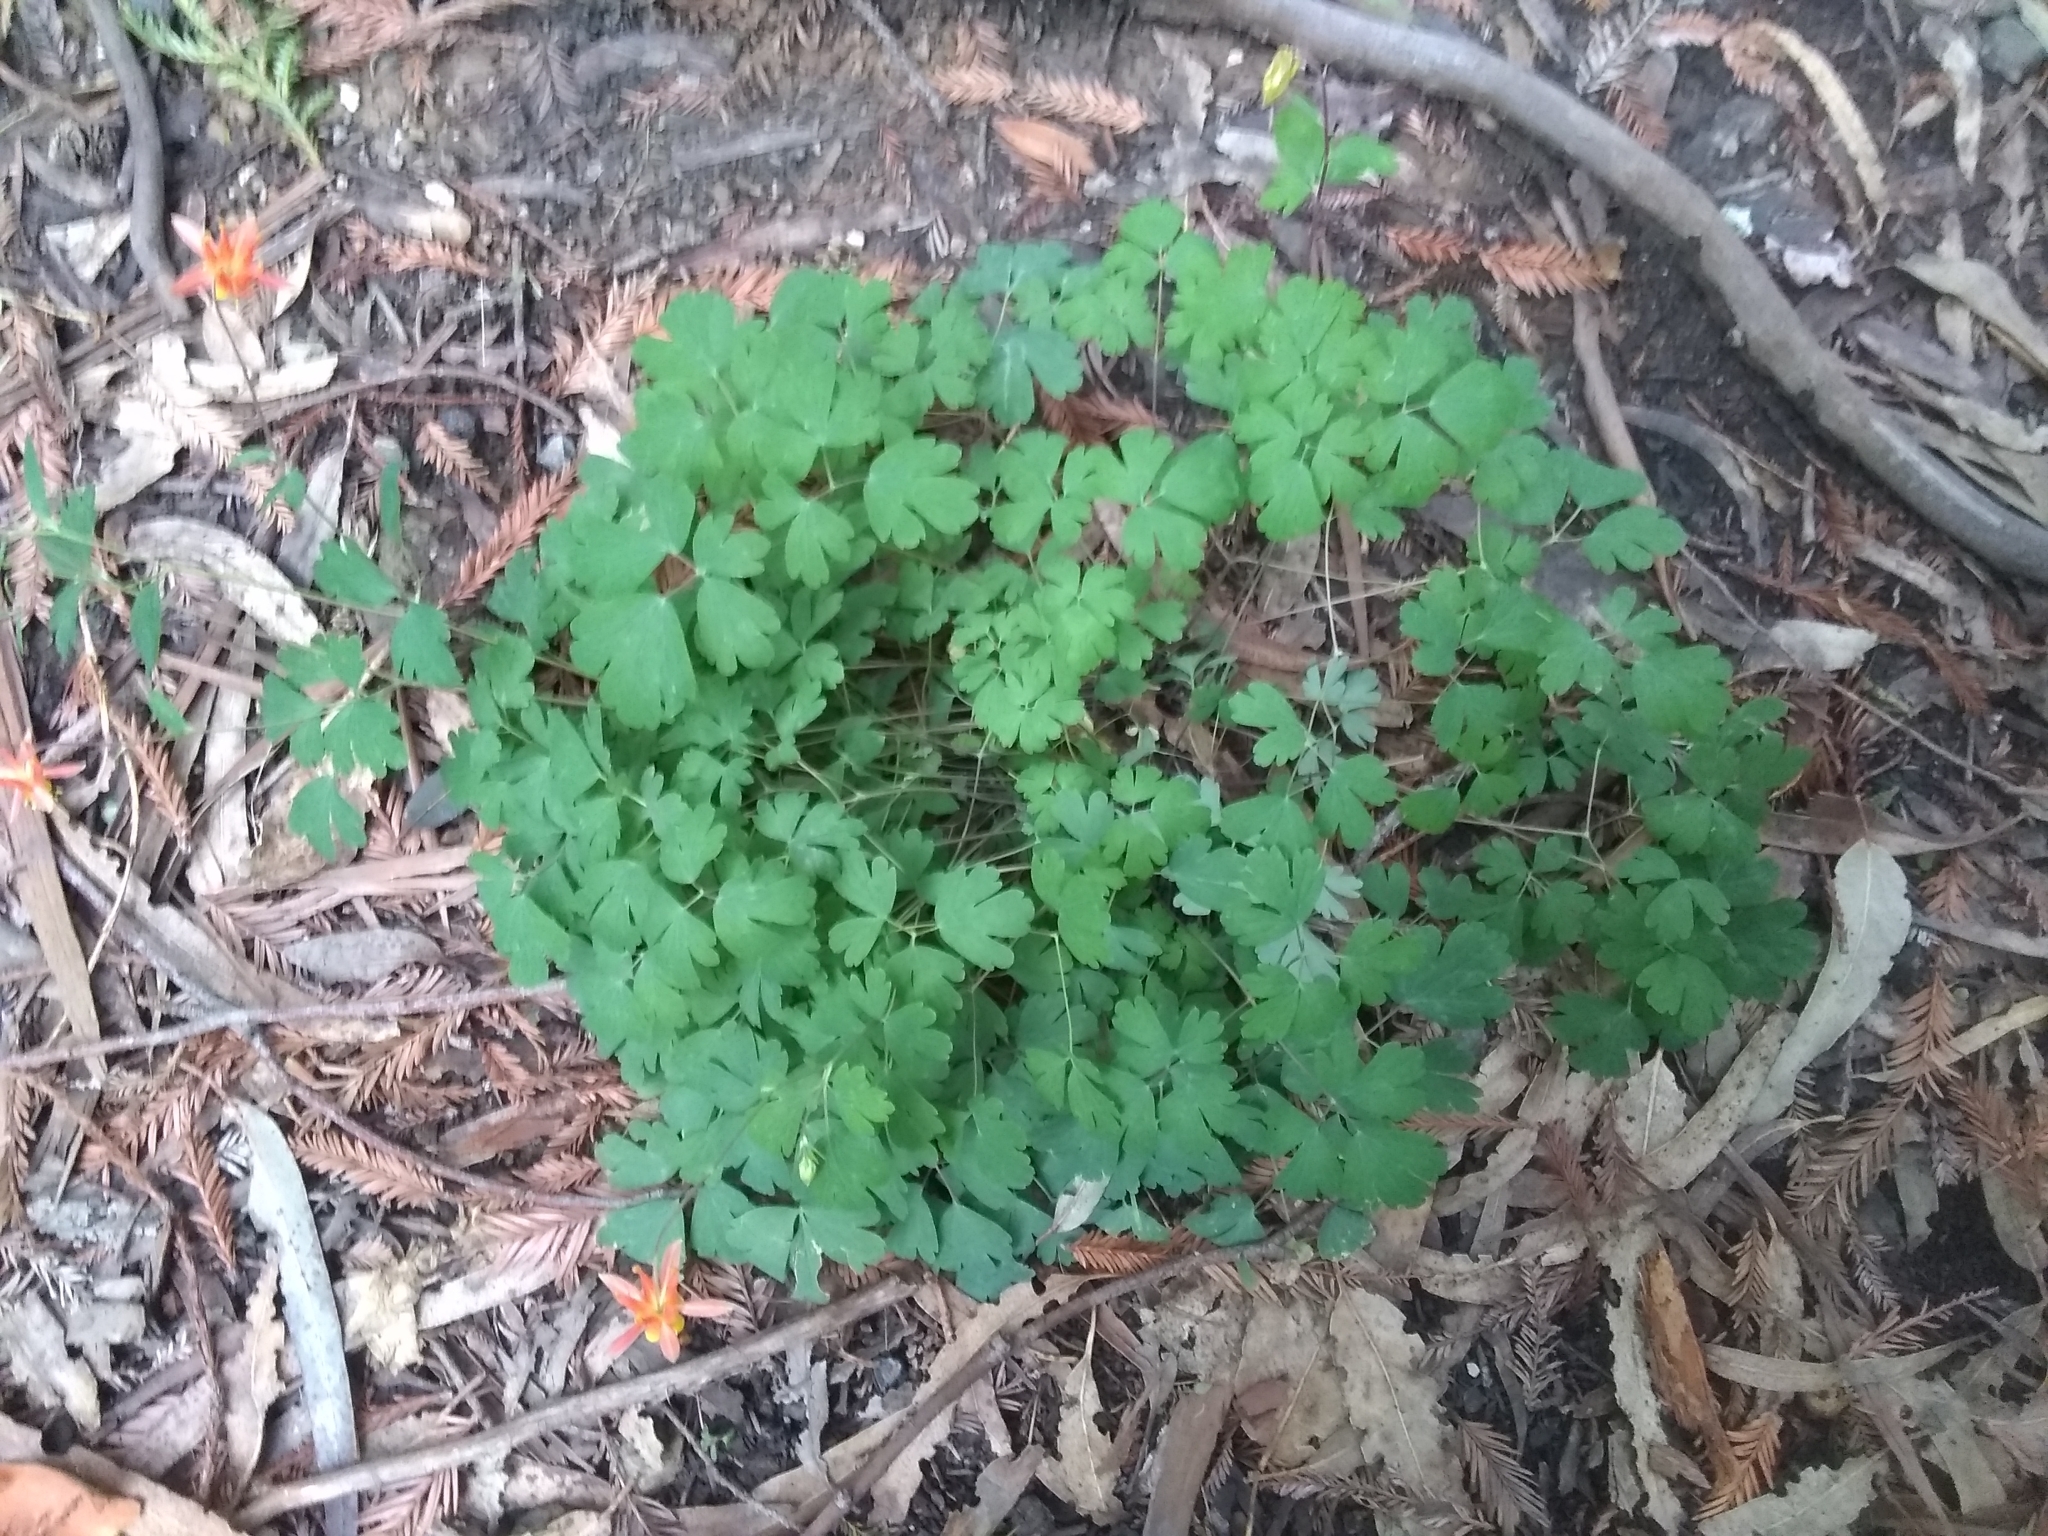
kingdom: Plantae
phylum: Tracheophyta
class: Magnoliopsida
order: Ranunculales
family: Ranunculaceae
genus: Aquilegia
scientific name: Aquilegia formosa
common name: Sitka columbine
